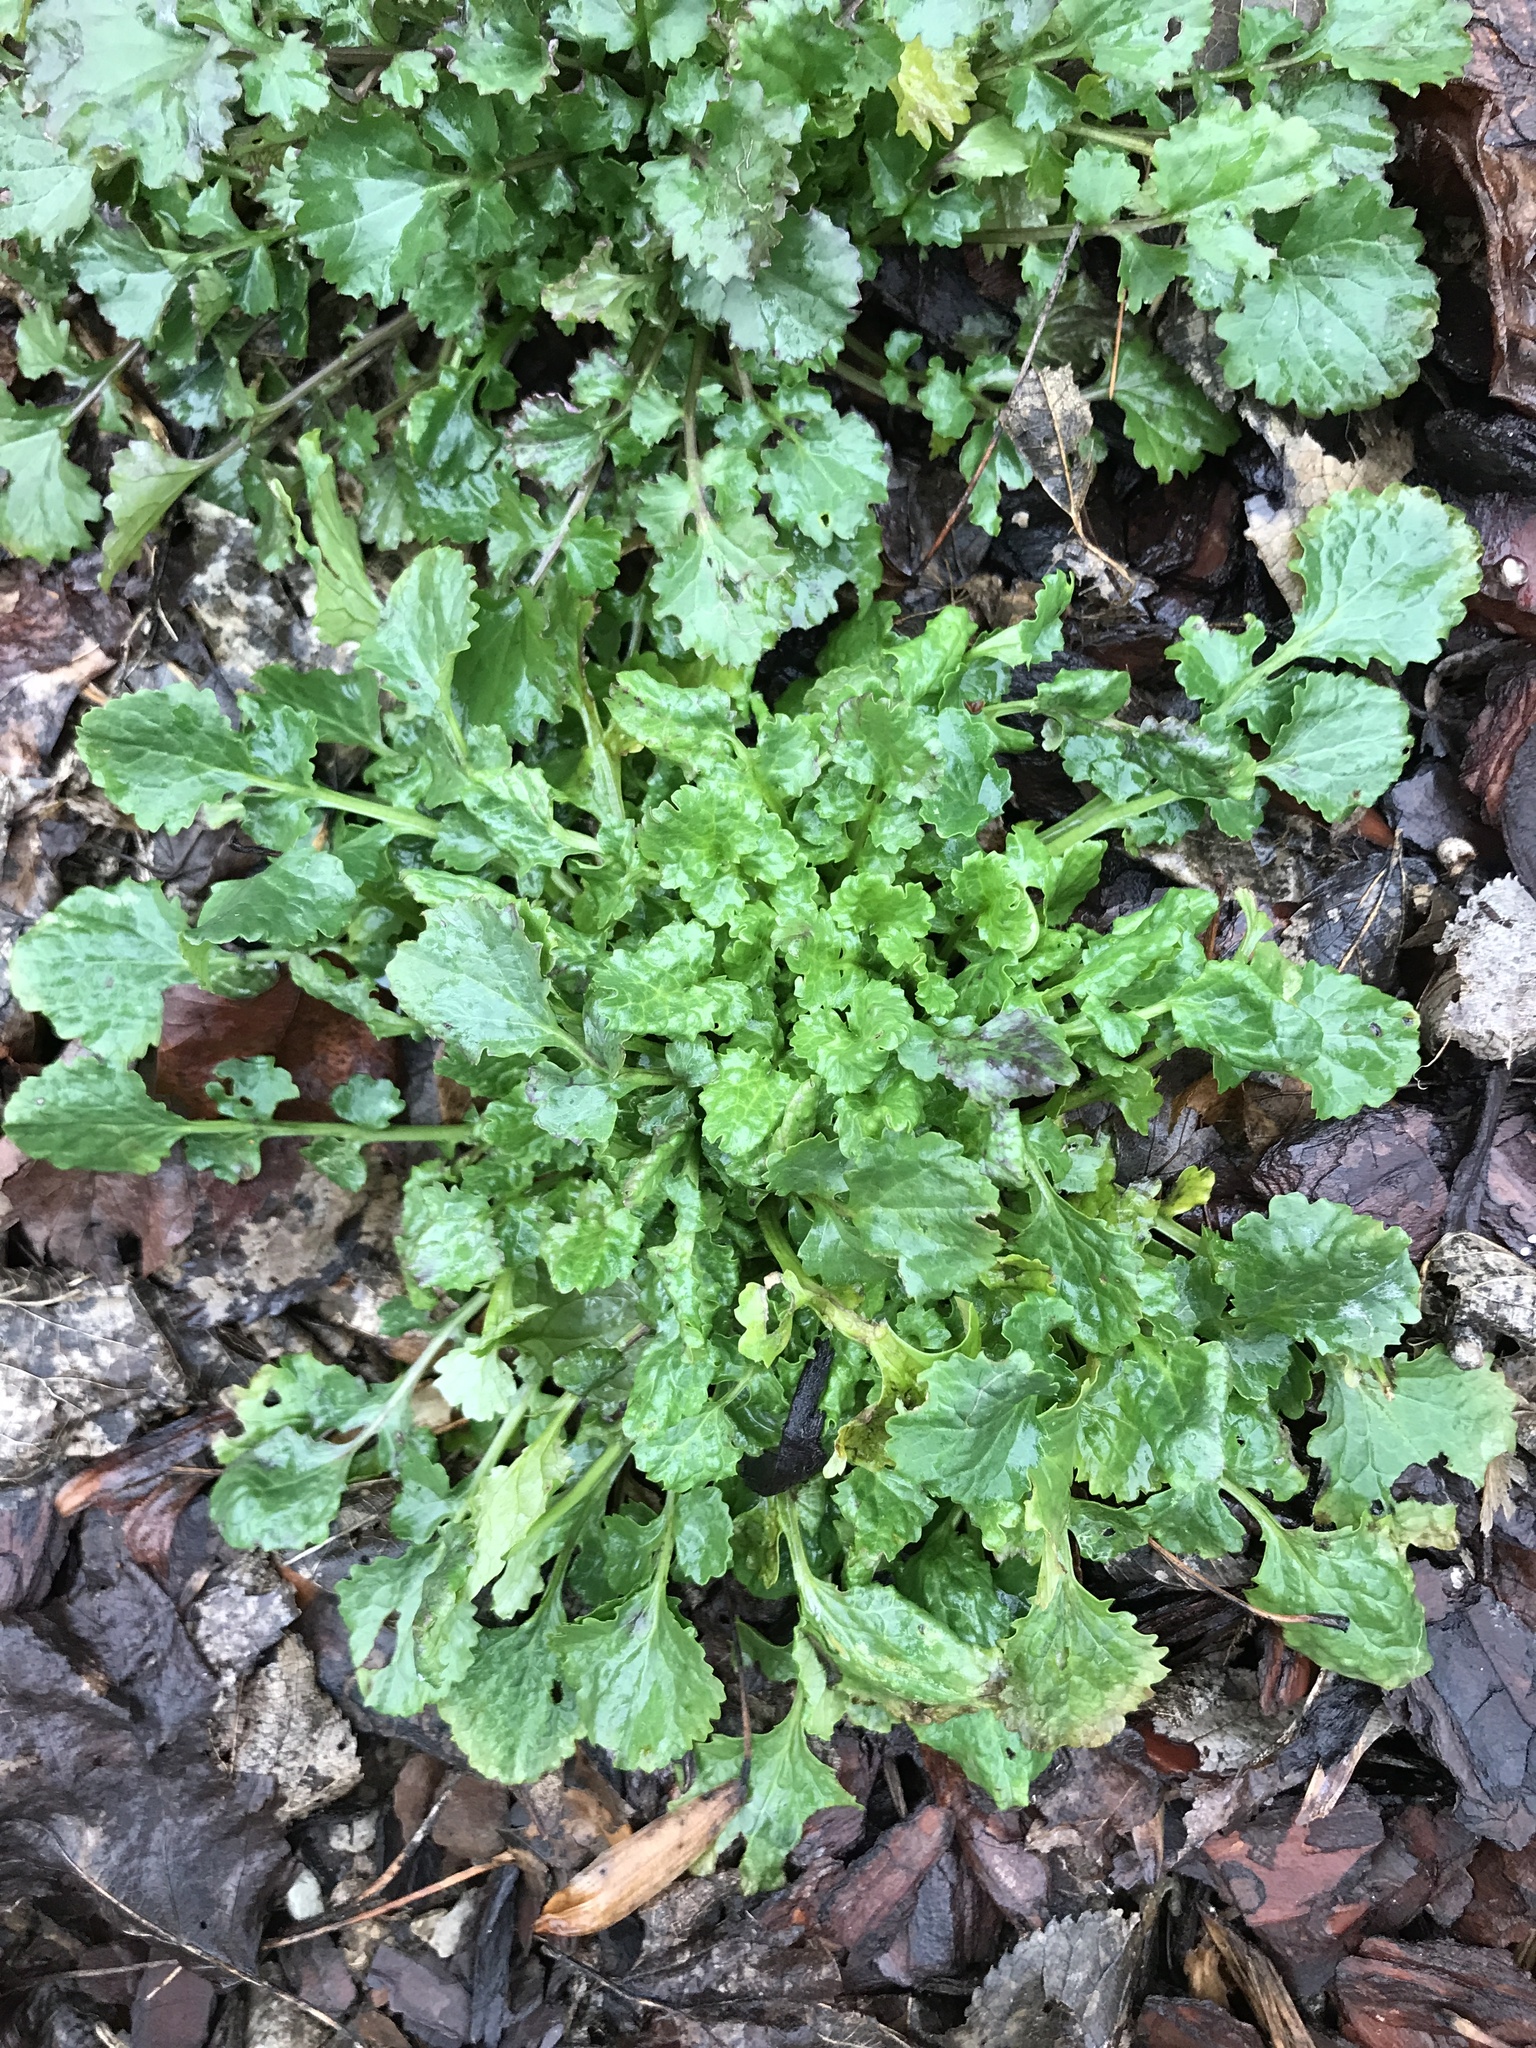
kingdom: Plantae
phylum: Tracheophyta
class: Magnoliopsida
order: Asterales
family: Asteraceae
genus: Packera
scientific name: Packera glabella
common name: Butterweed
